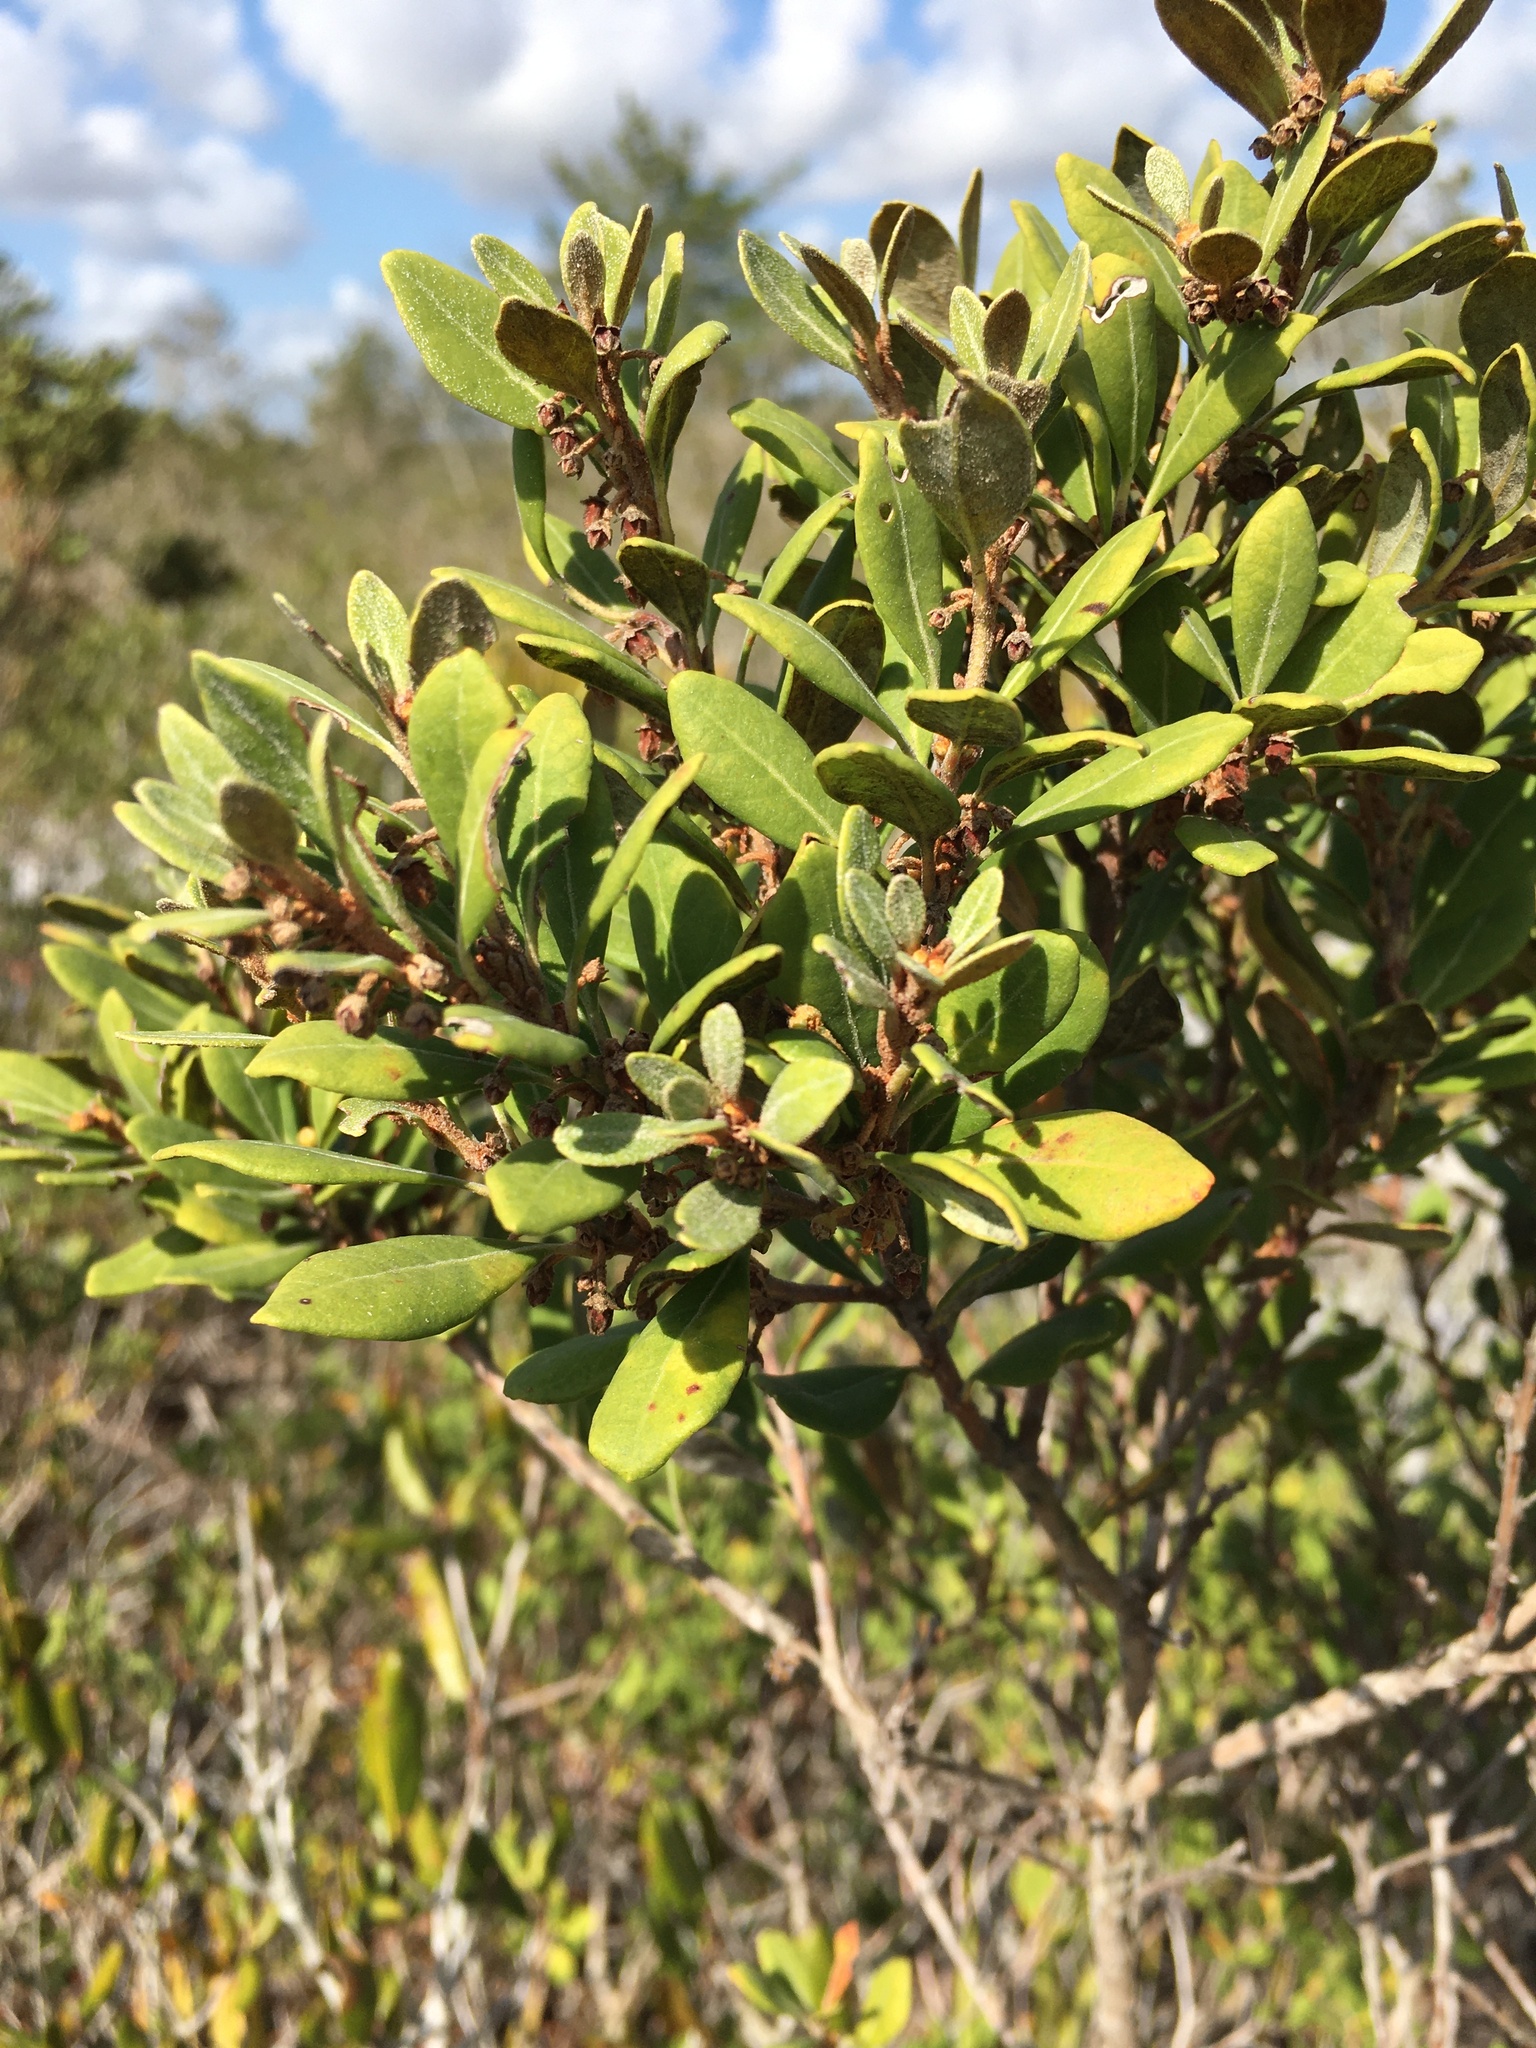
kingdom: Plantae
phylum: Tracheophyta
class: Magnoliopsida
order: Ericales
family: Ericaceae
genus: Lyonia
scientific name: Lyonia ferruginea
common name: Rusty lyonia
